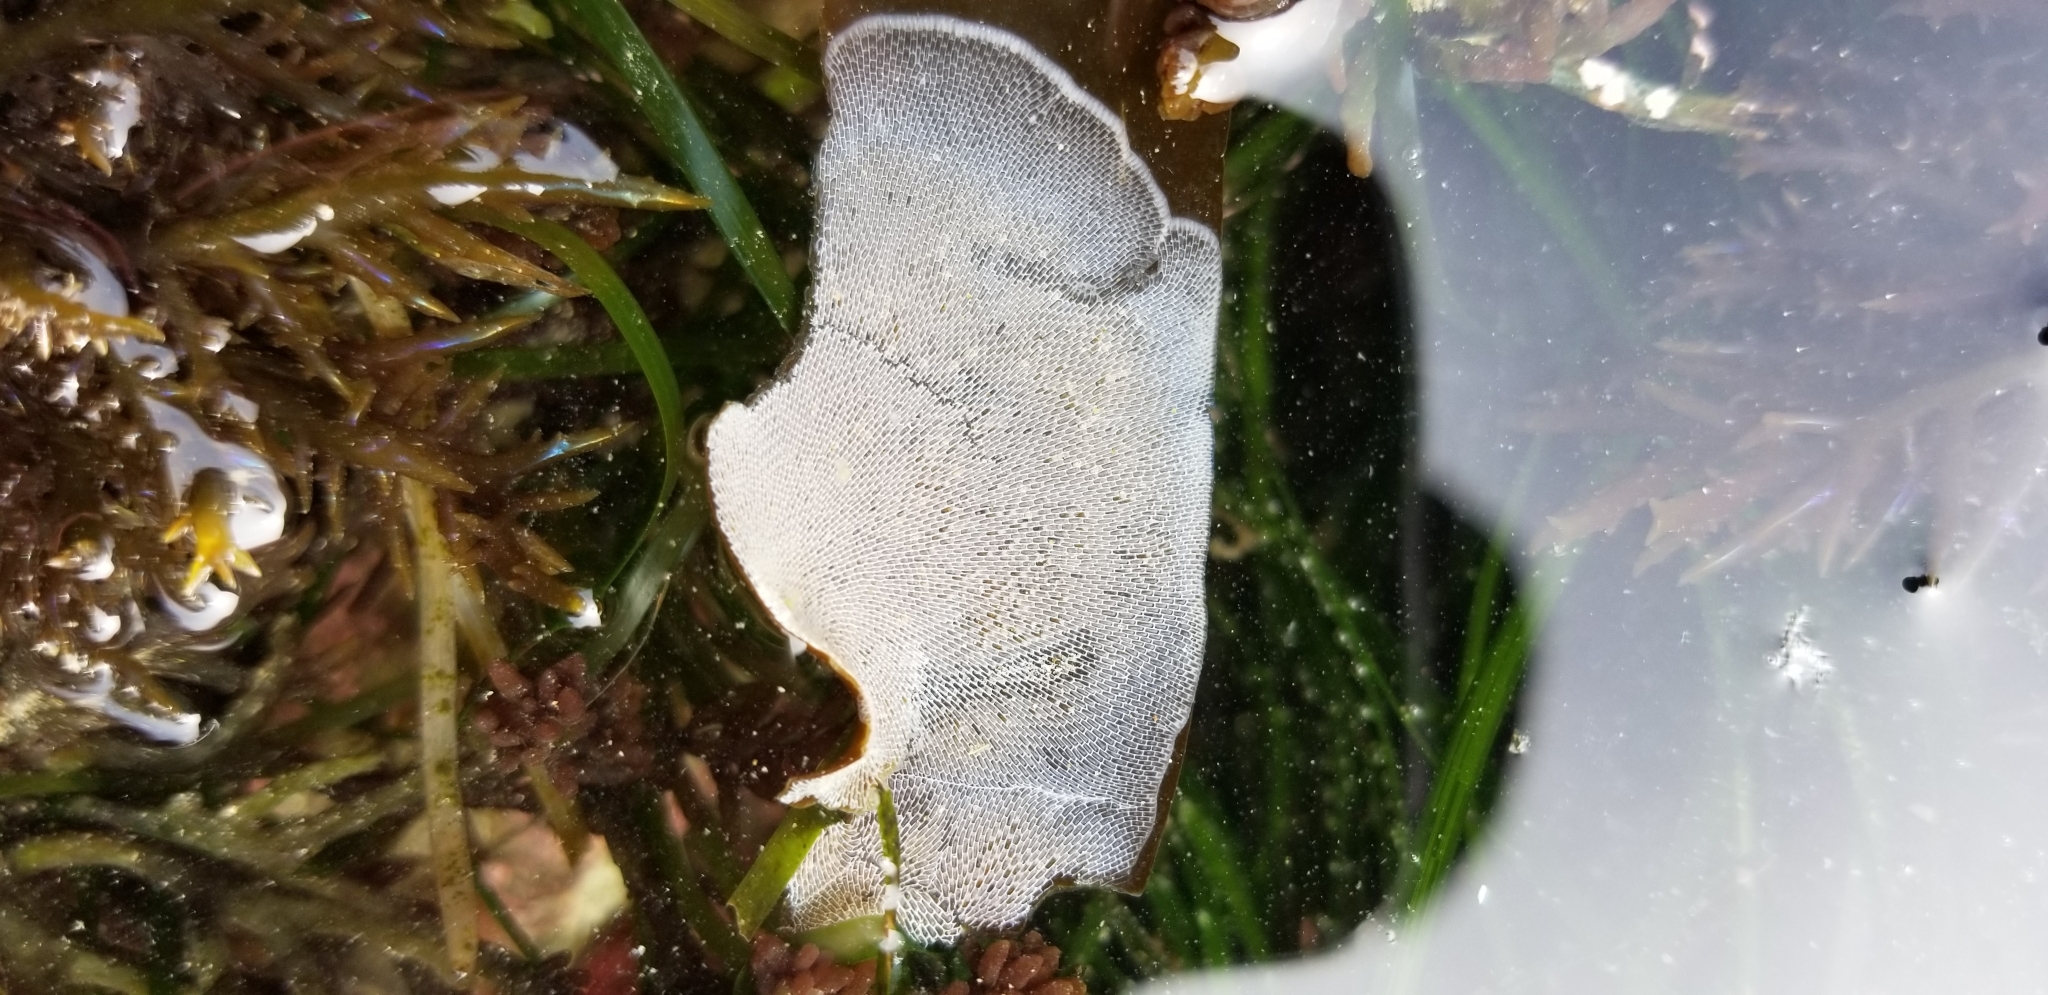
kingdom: Animalia
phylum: Bryozoa
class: Gymnolaemata
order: Cheilostomatida
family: Membraniporidae
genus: Membranipora
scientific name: Membranipora membranacea
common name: Sea mat
